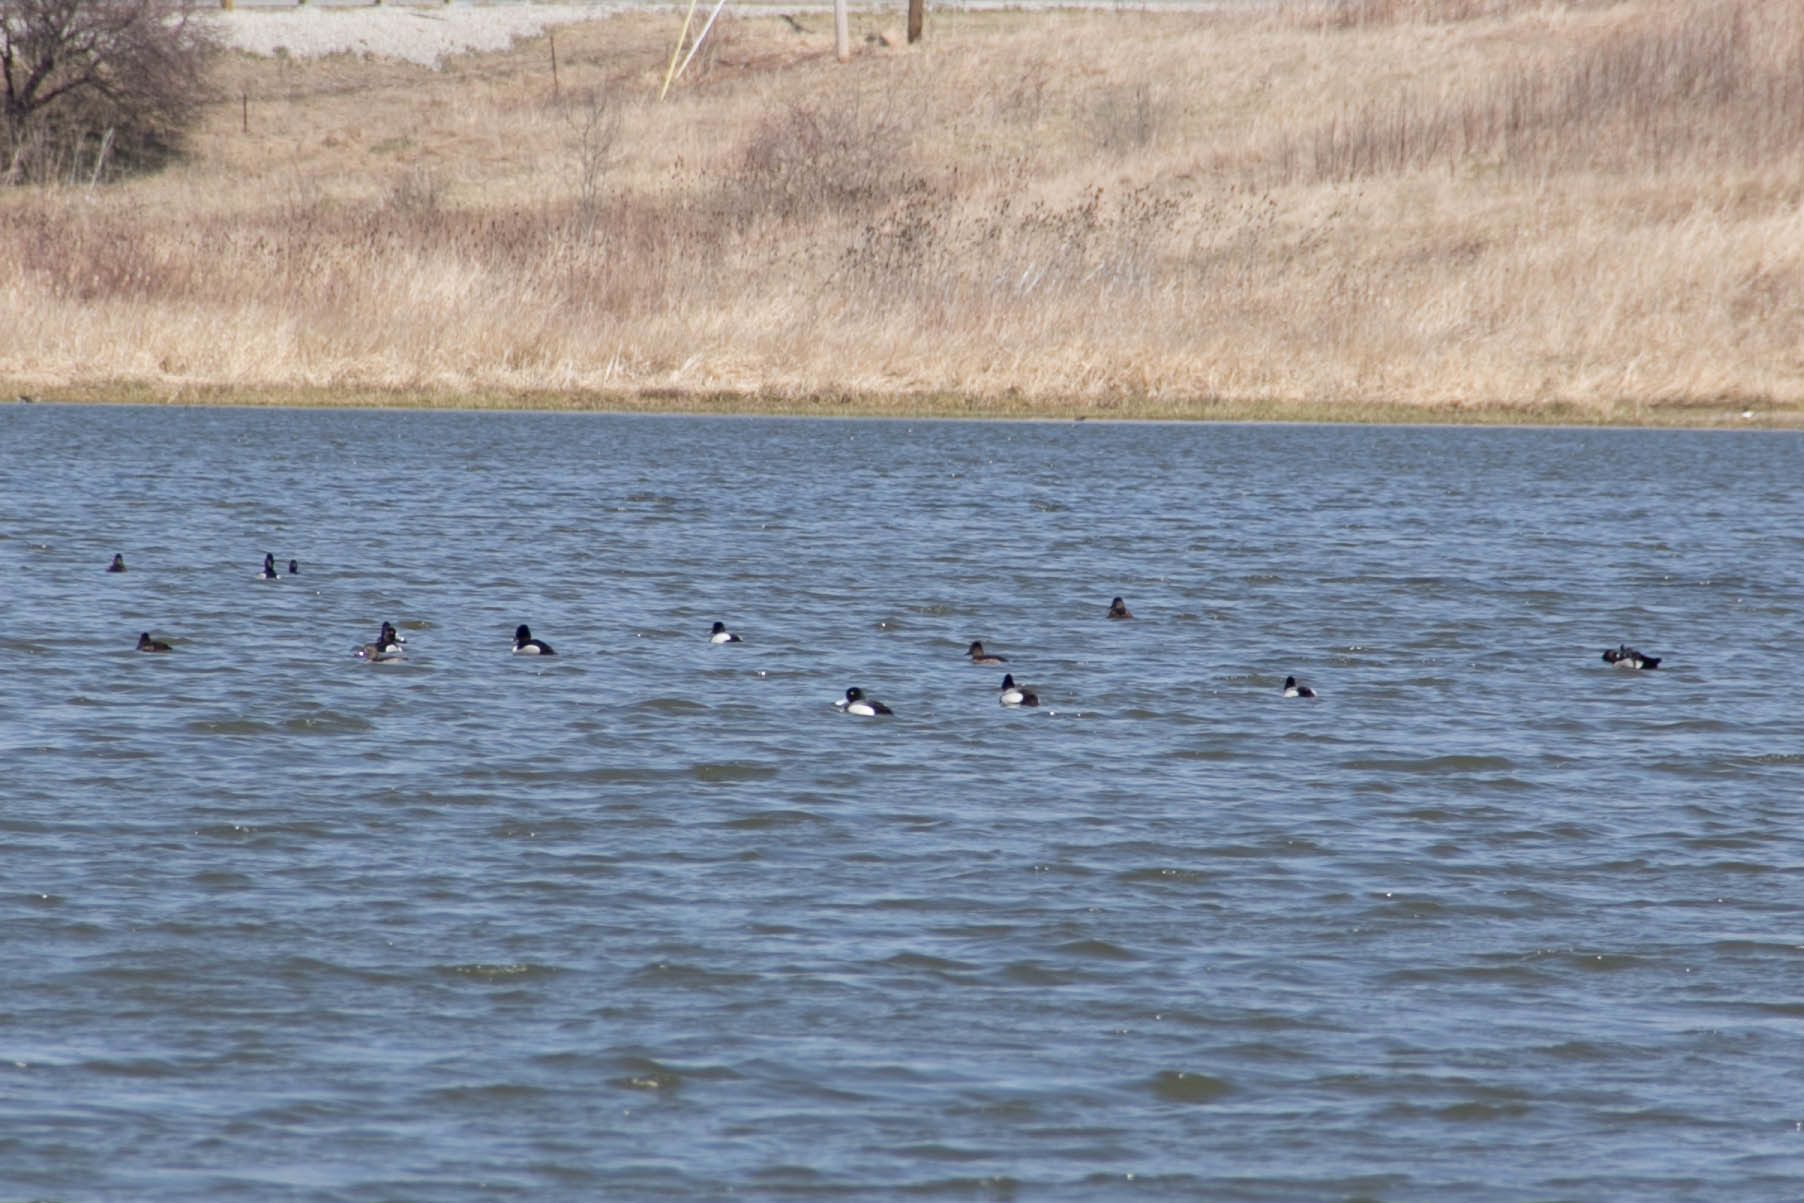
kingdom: Animalia
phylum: Chordata
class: Aves
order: Anseriformes
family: Anatidae
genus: Aythya
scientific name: Aythya affinis
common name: Lesser scaup
